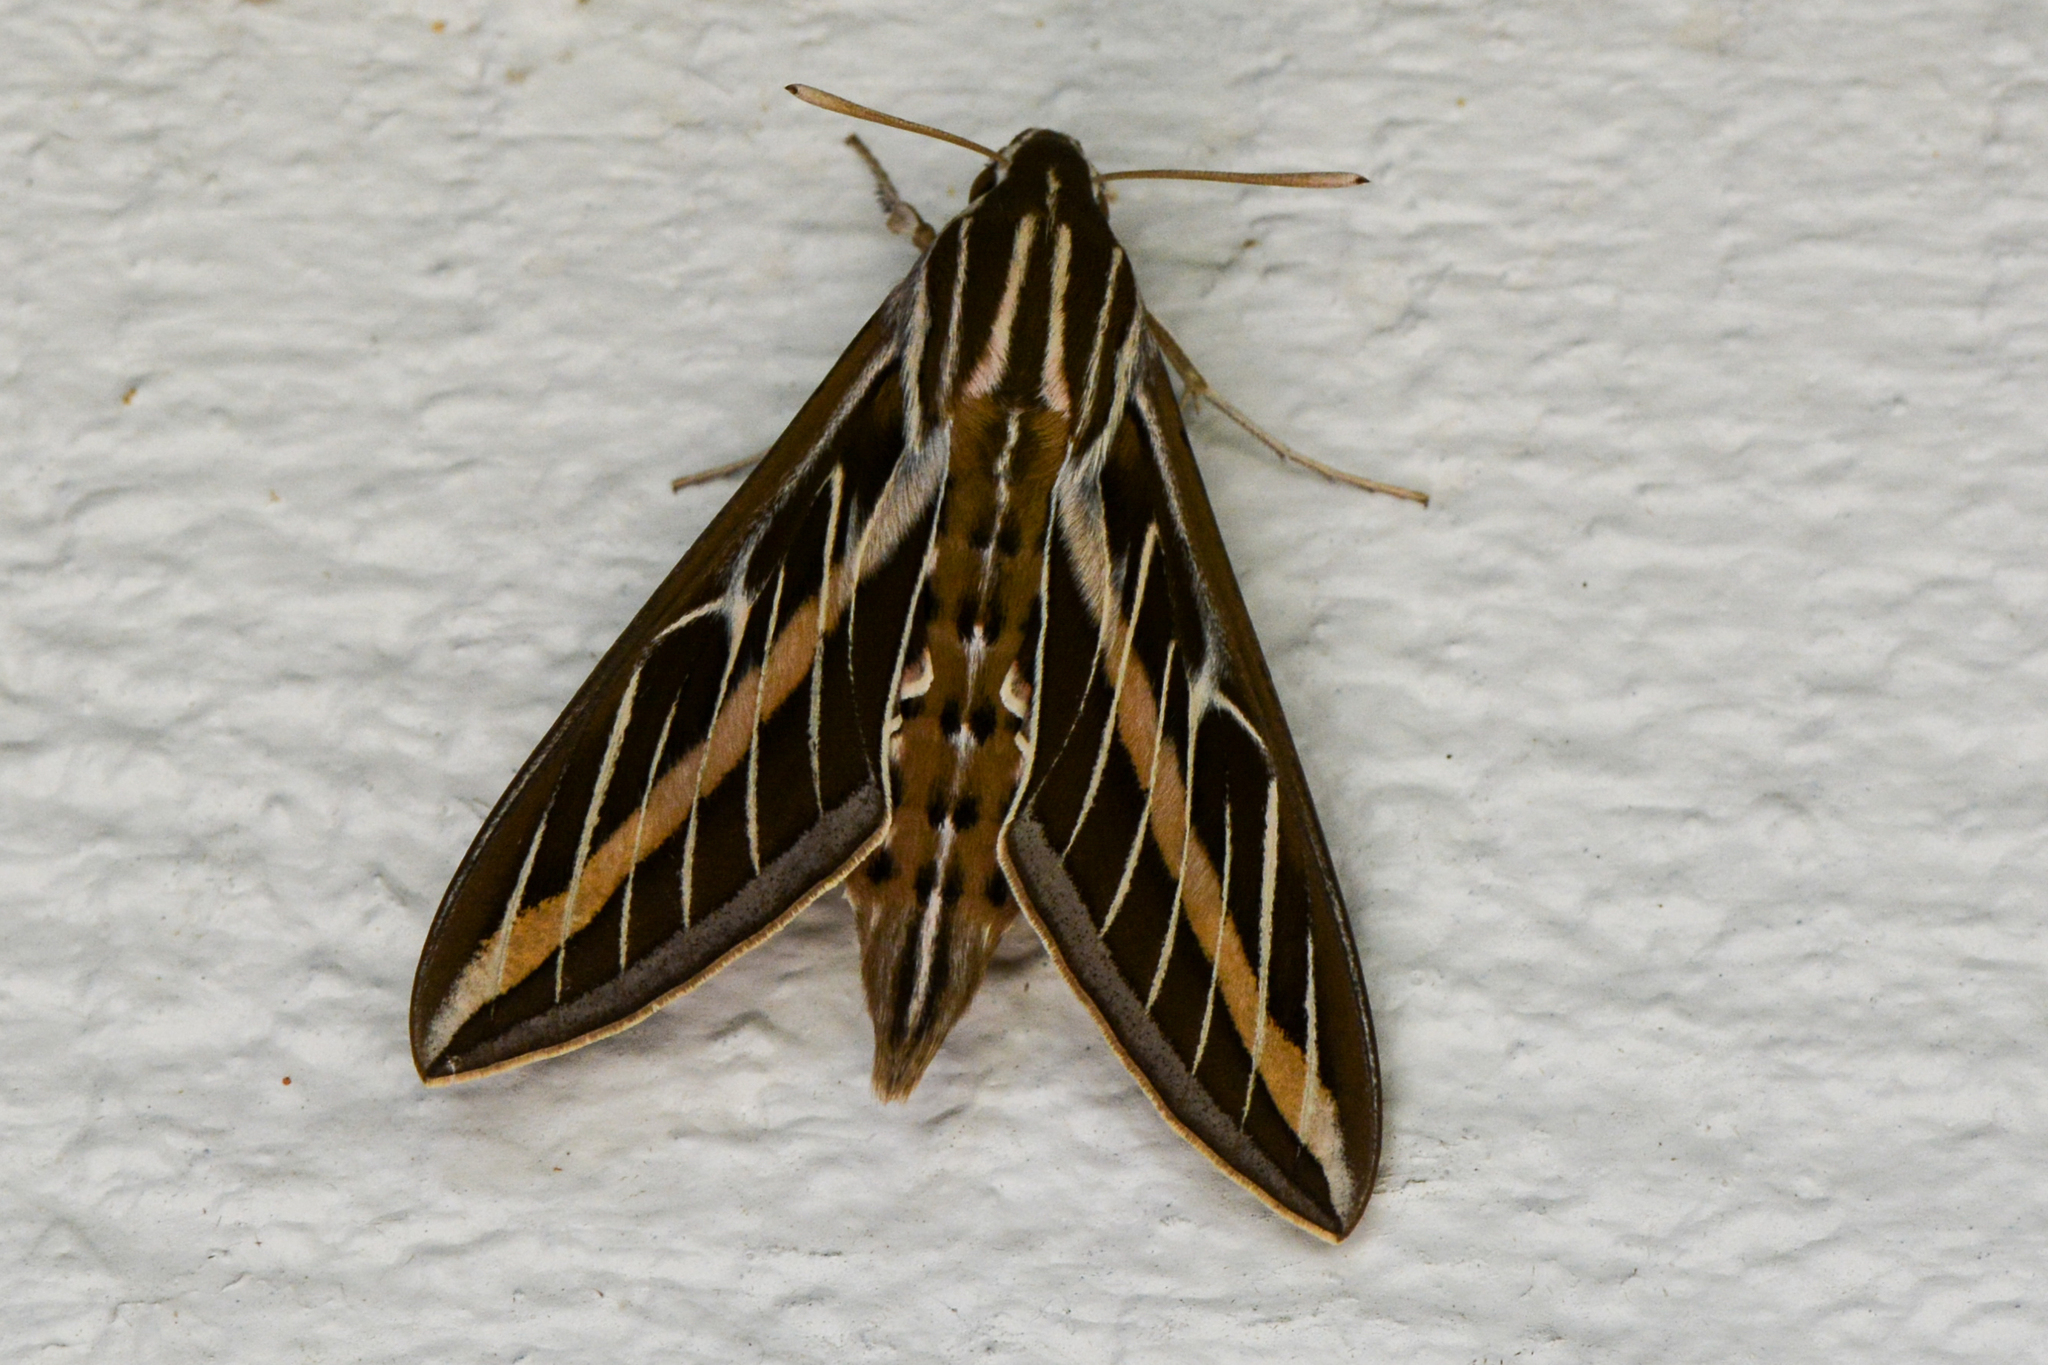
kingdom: Animalia
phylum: Arthropoda
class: Insecta
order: Lepidoptera
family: Sphingidae
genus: Hyles
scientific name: Hyles lineata
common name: White-lined sphinx
